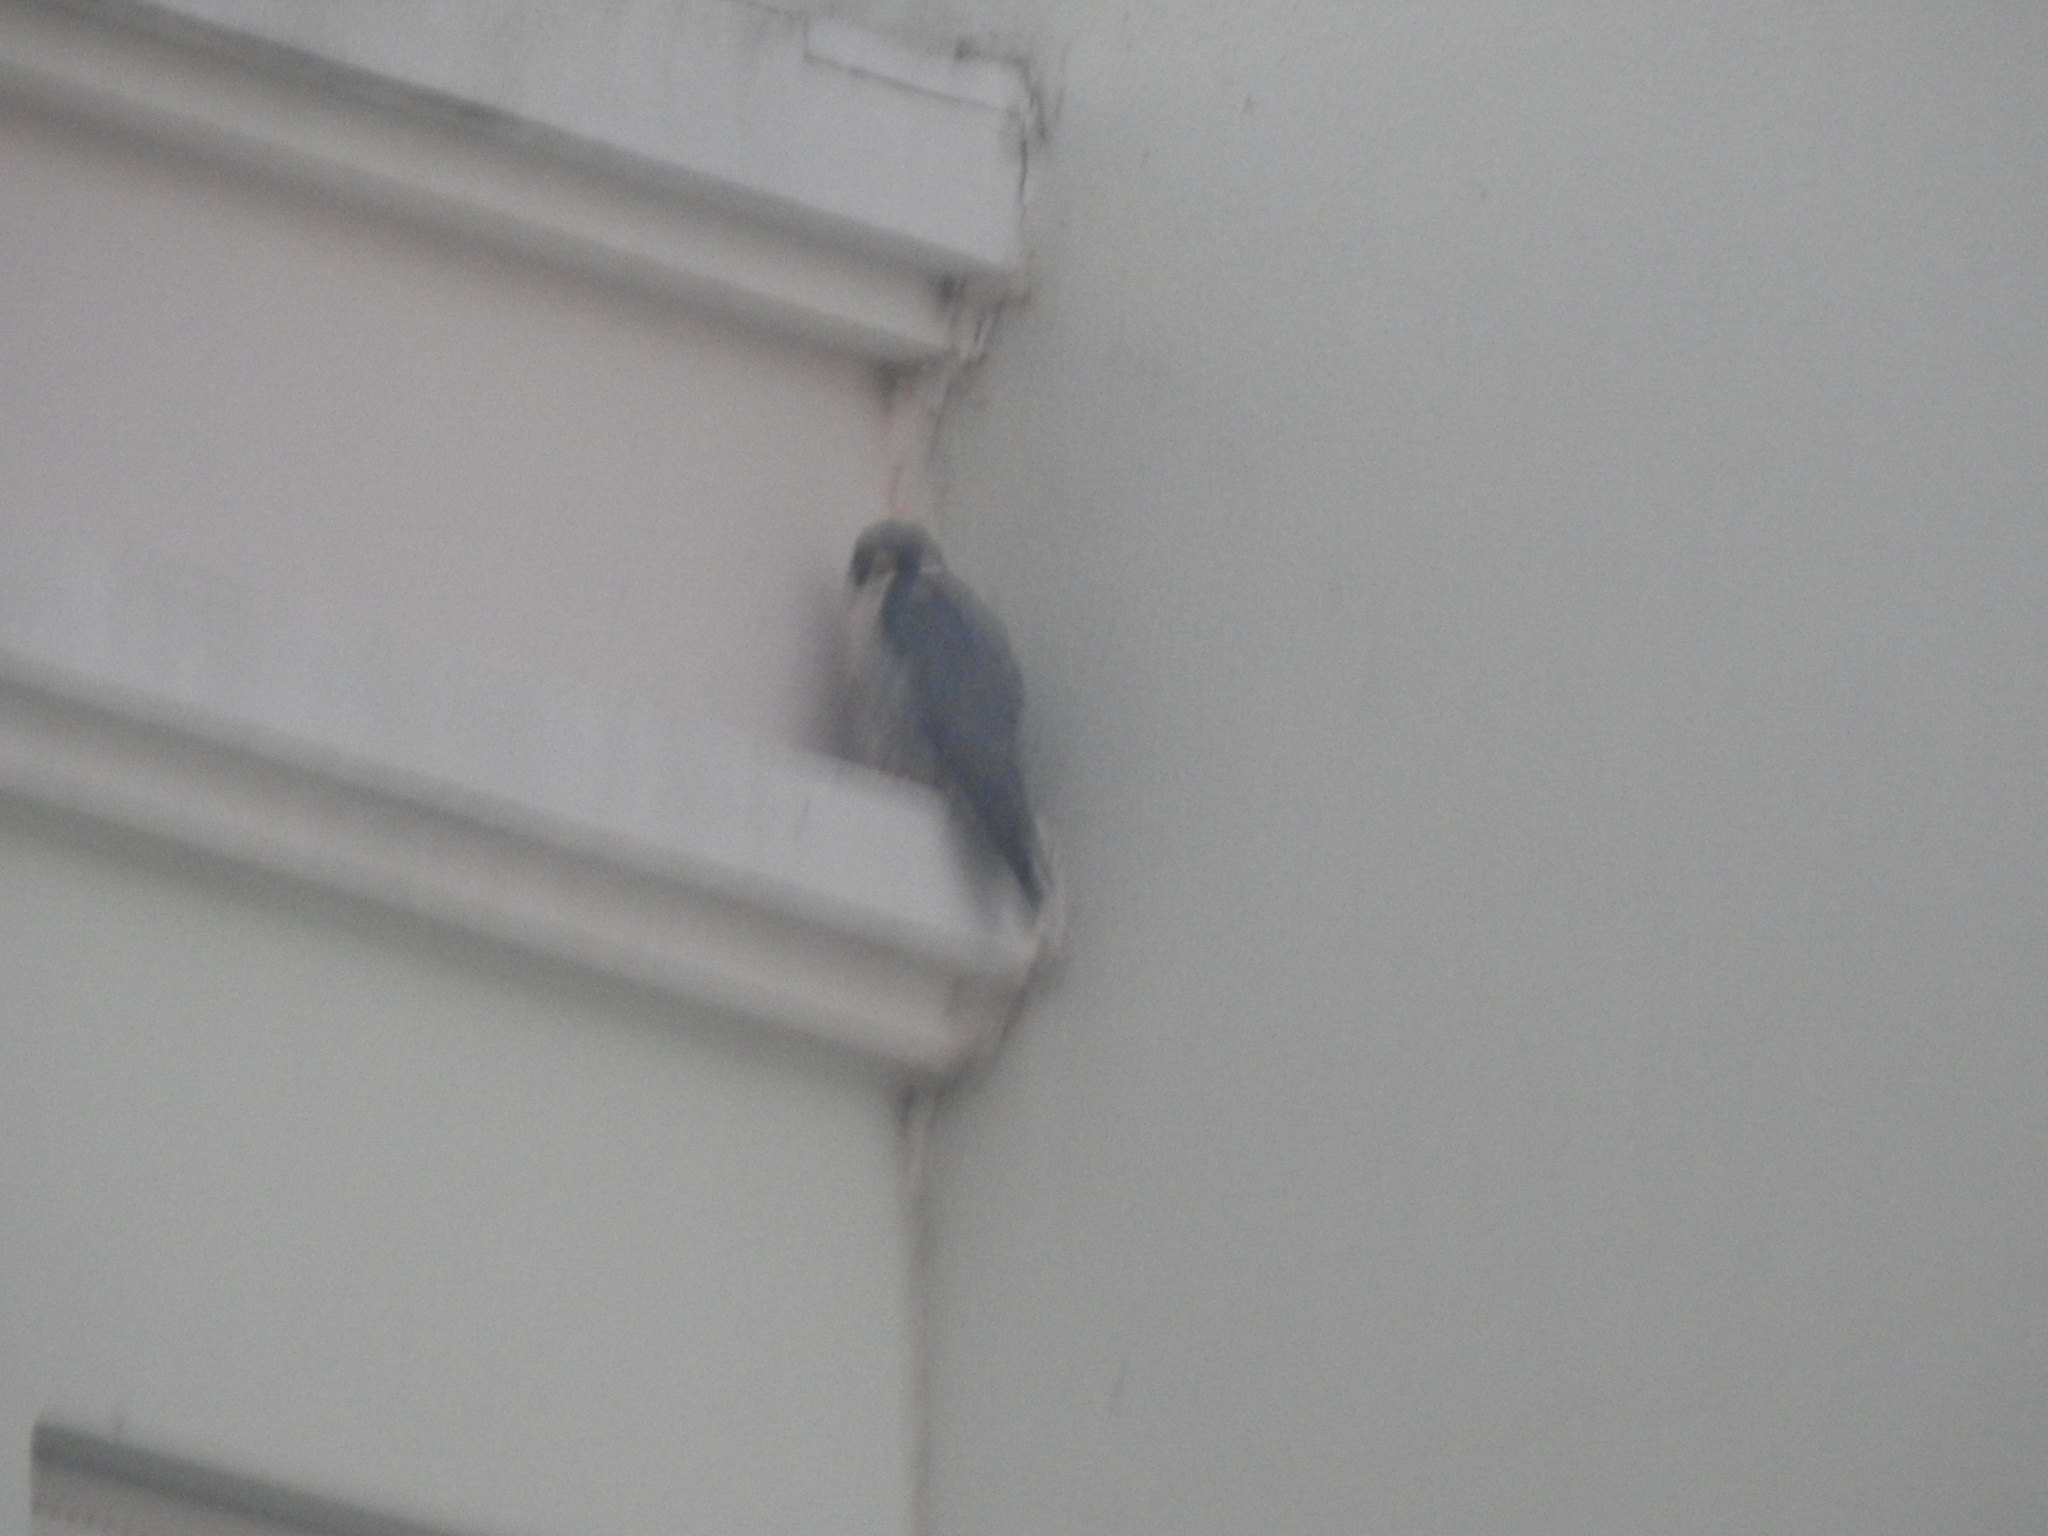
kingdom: Animalia
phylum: Chordata
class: Aves
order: Falconiformes
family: Falconidae
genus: Falco
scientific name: Falco peregrinus
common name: Peregrine falcon
